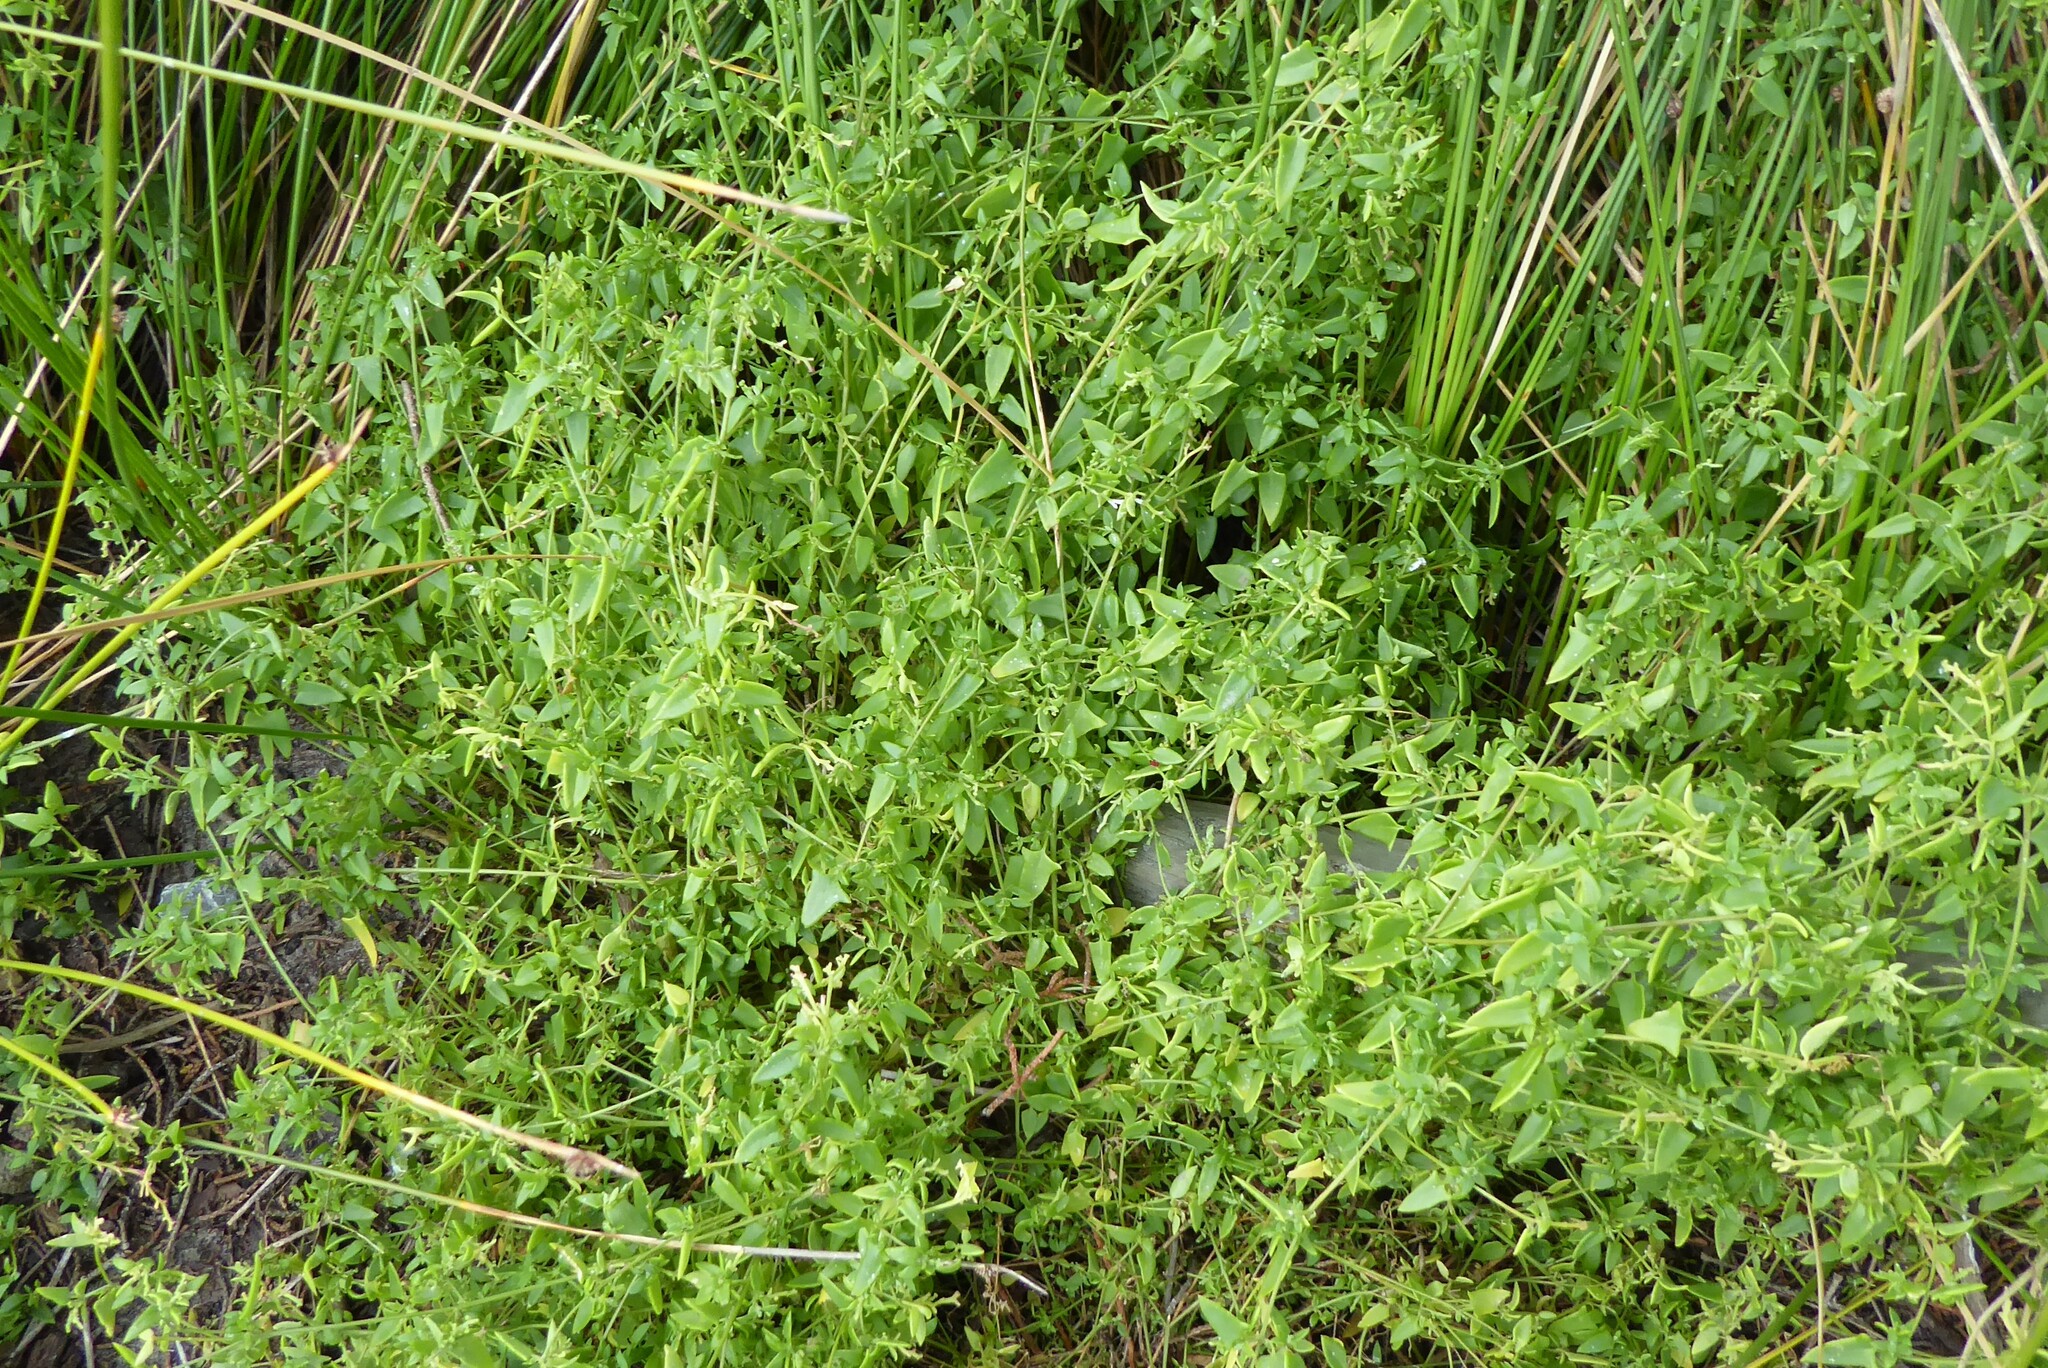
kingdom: Plantae
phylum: Tracheophyta
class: Magnoliopsida
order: Caryophyllales
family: Amaranthaceae
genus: Chenopodium
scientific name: Chenopodium nutans
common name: Climbing-saltbush
